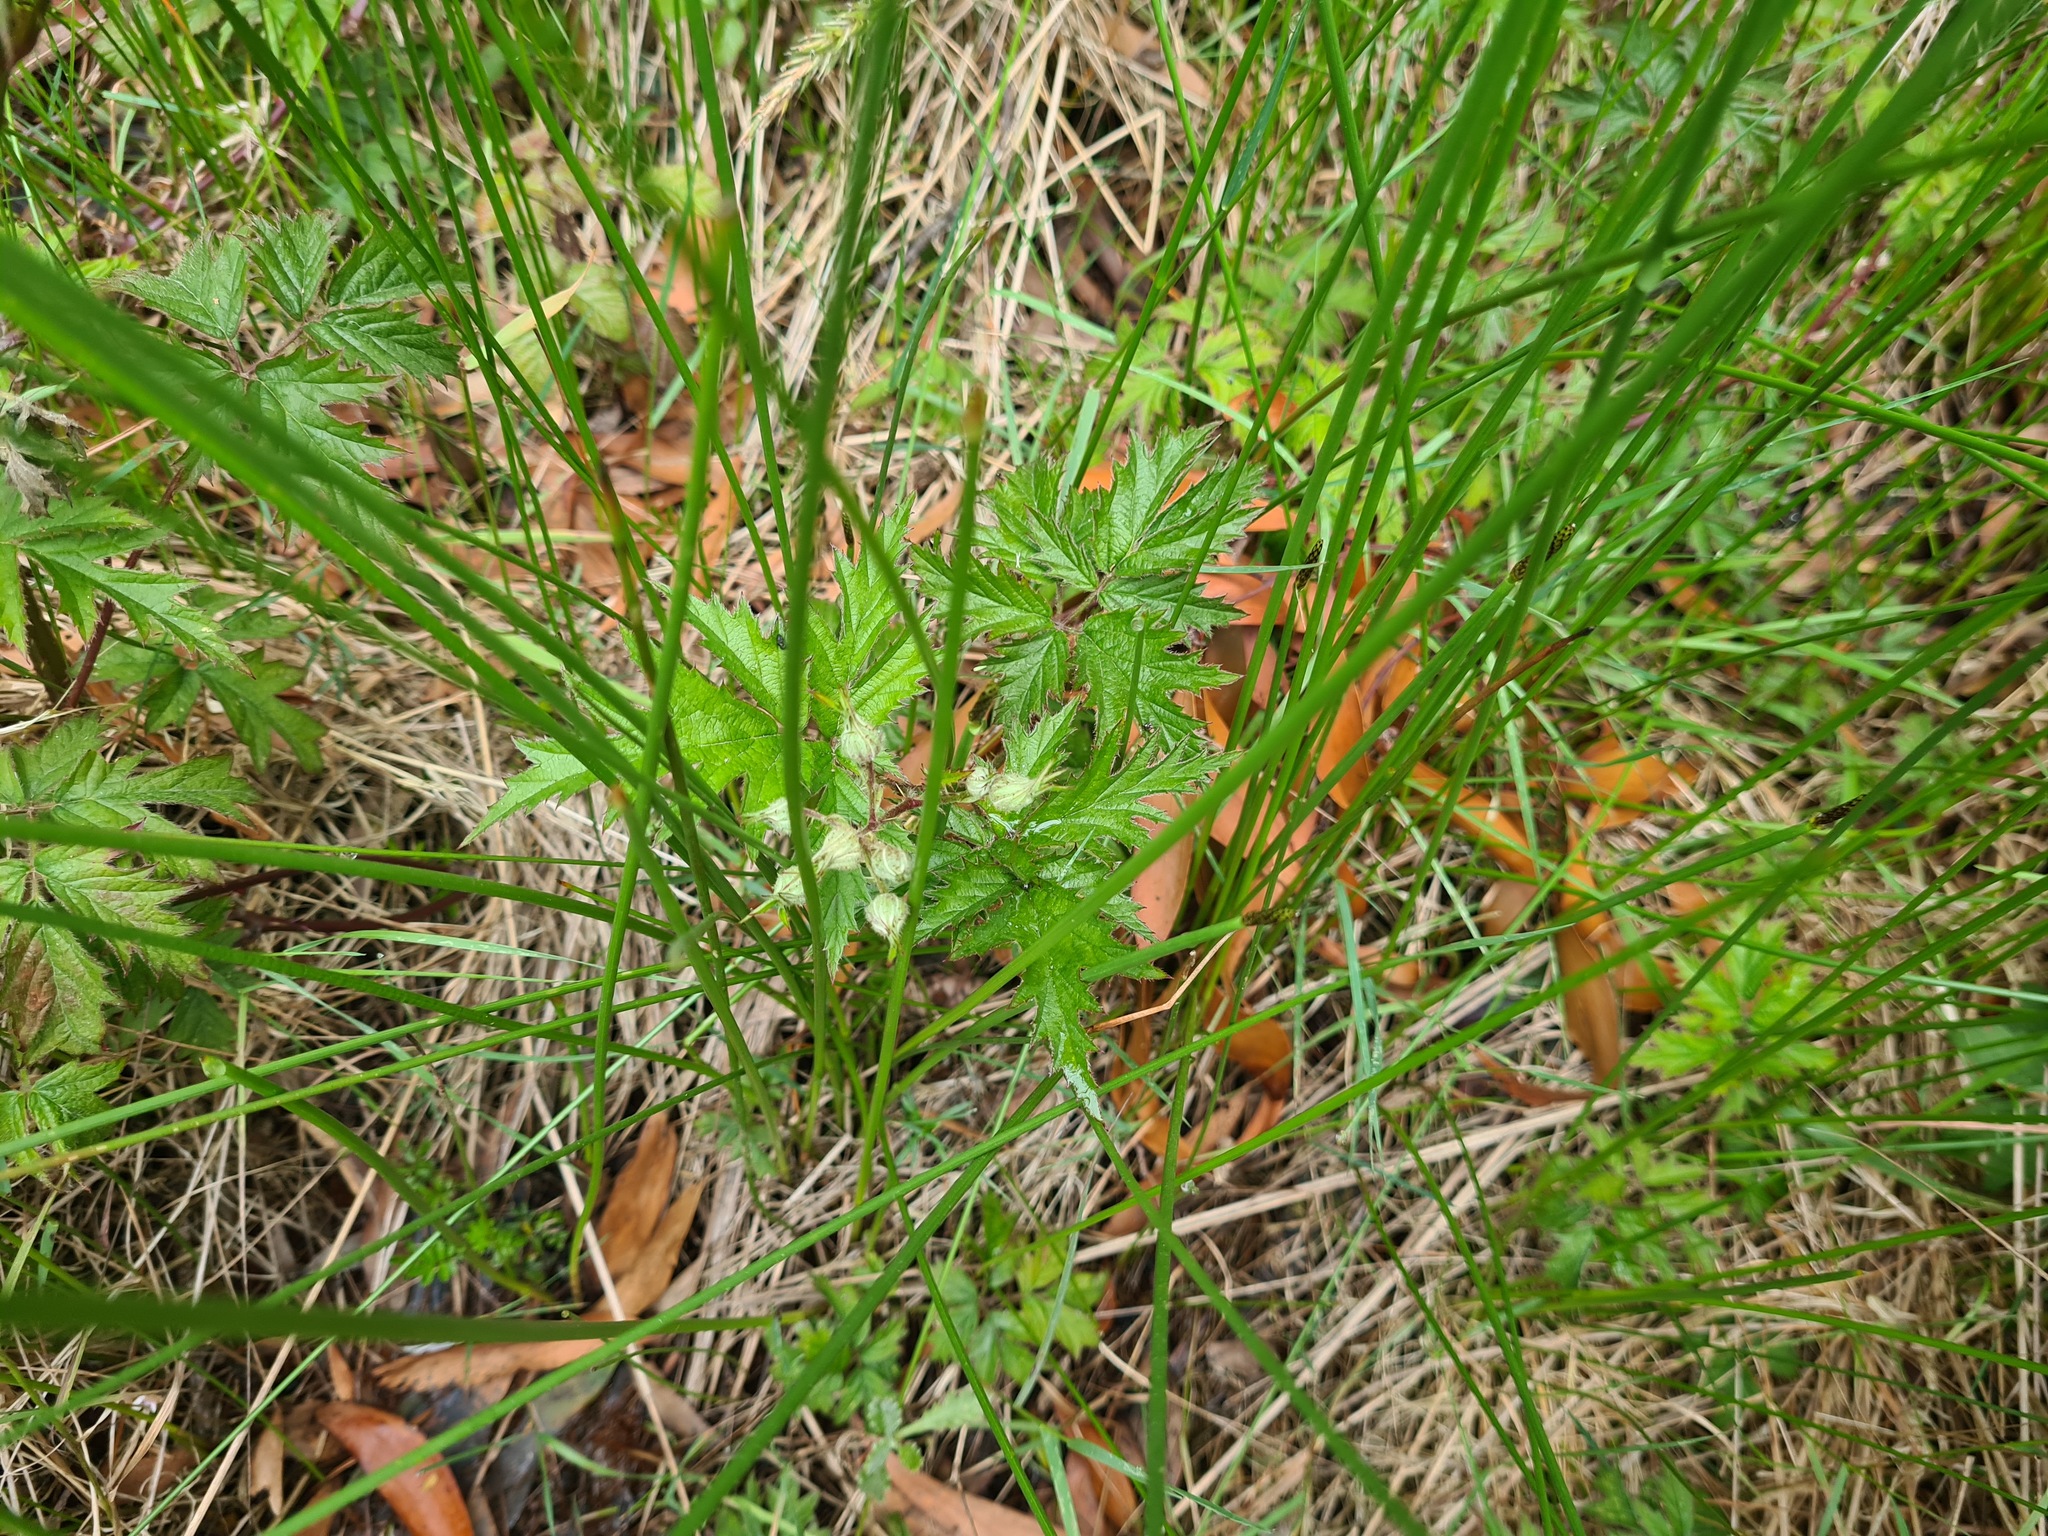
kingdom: Plantae
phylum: Tracheophyta
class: Magnoliopsida
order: Rosales
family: Rosaceae
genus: Rubus
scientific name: Rubus laciniatus
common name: Evergreen blackberry
